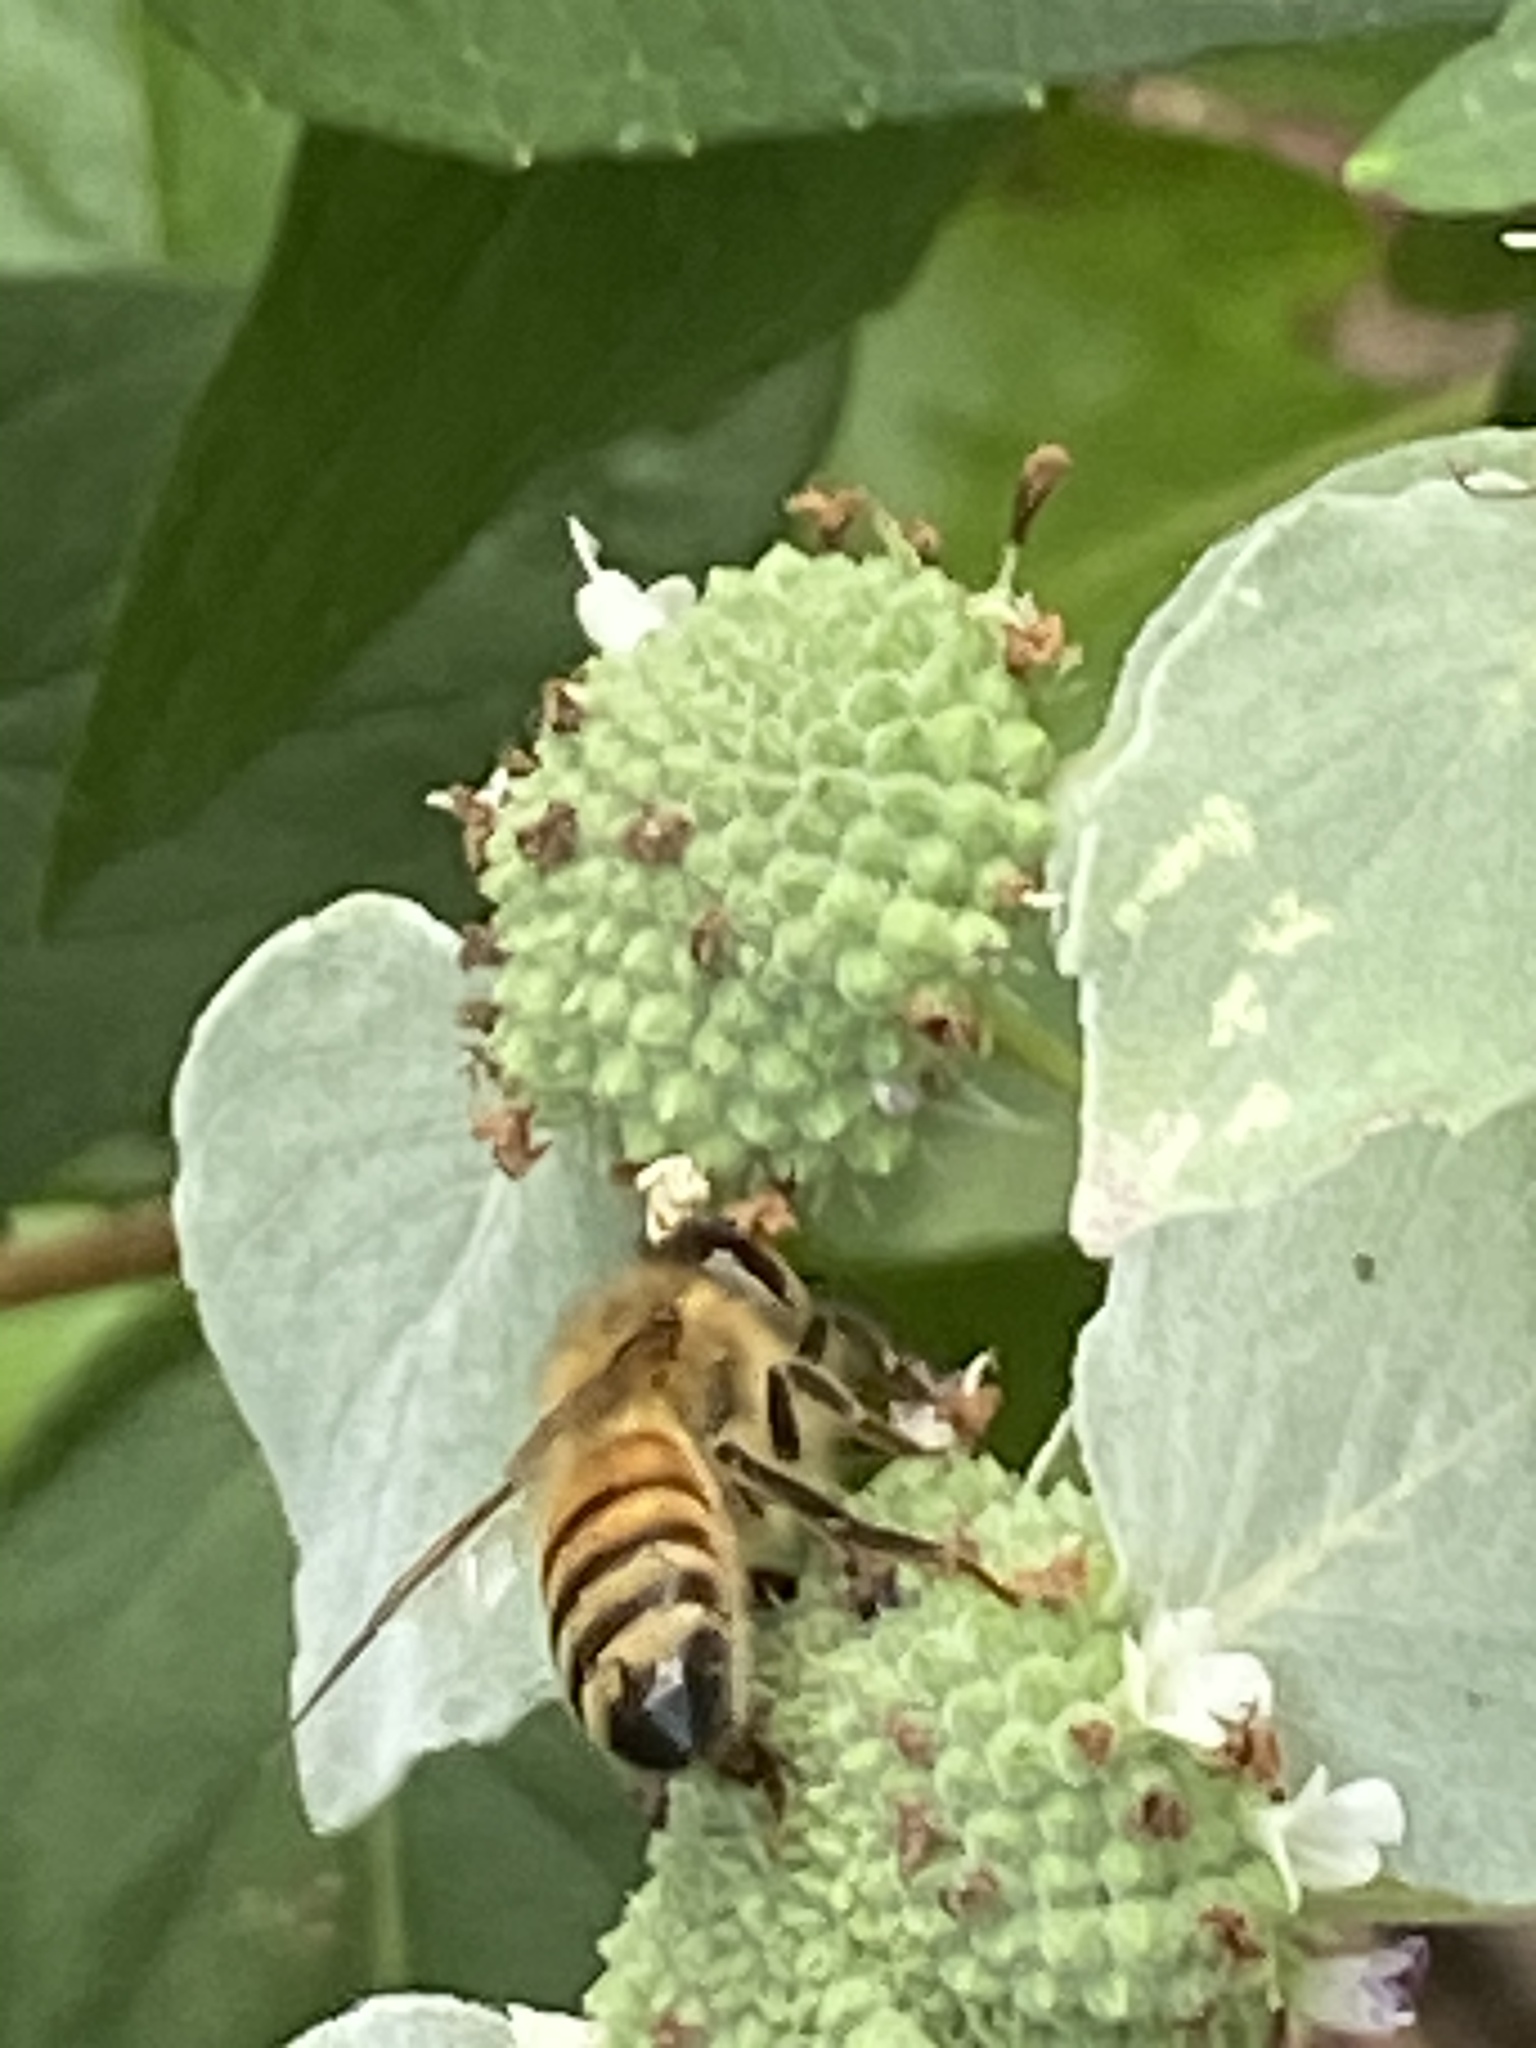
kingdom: Animalia
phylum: Arthropoda
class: Insecta
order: Hymenoptera
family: Apidae
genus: Apis
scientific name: Apis mellifera
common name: Honey bee
